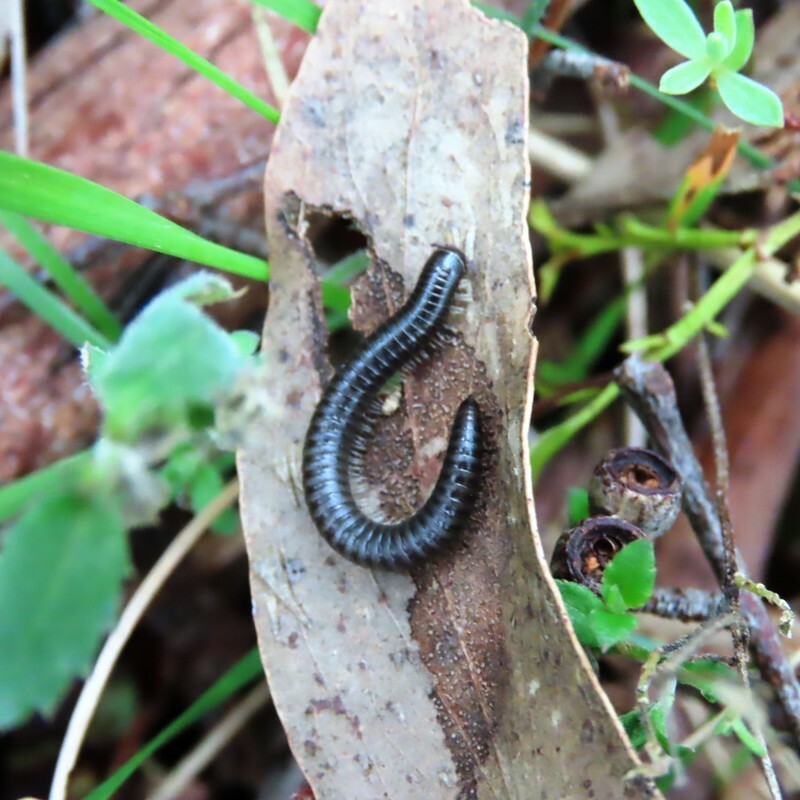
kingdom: Animalia
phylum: Arthropoda
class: Diplopoda
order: Julida
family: Julidae
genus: Ommatoiulus
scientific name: Ommatoiulus moreleti
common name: Portuguese millipede
